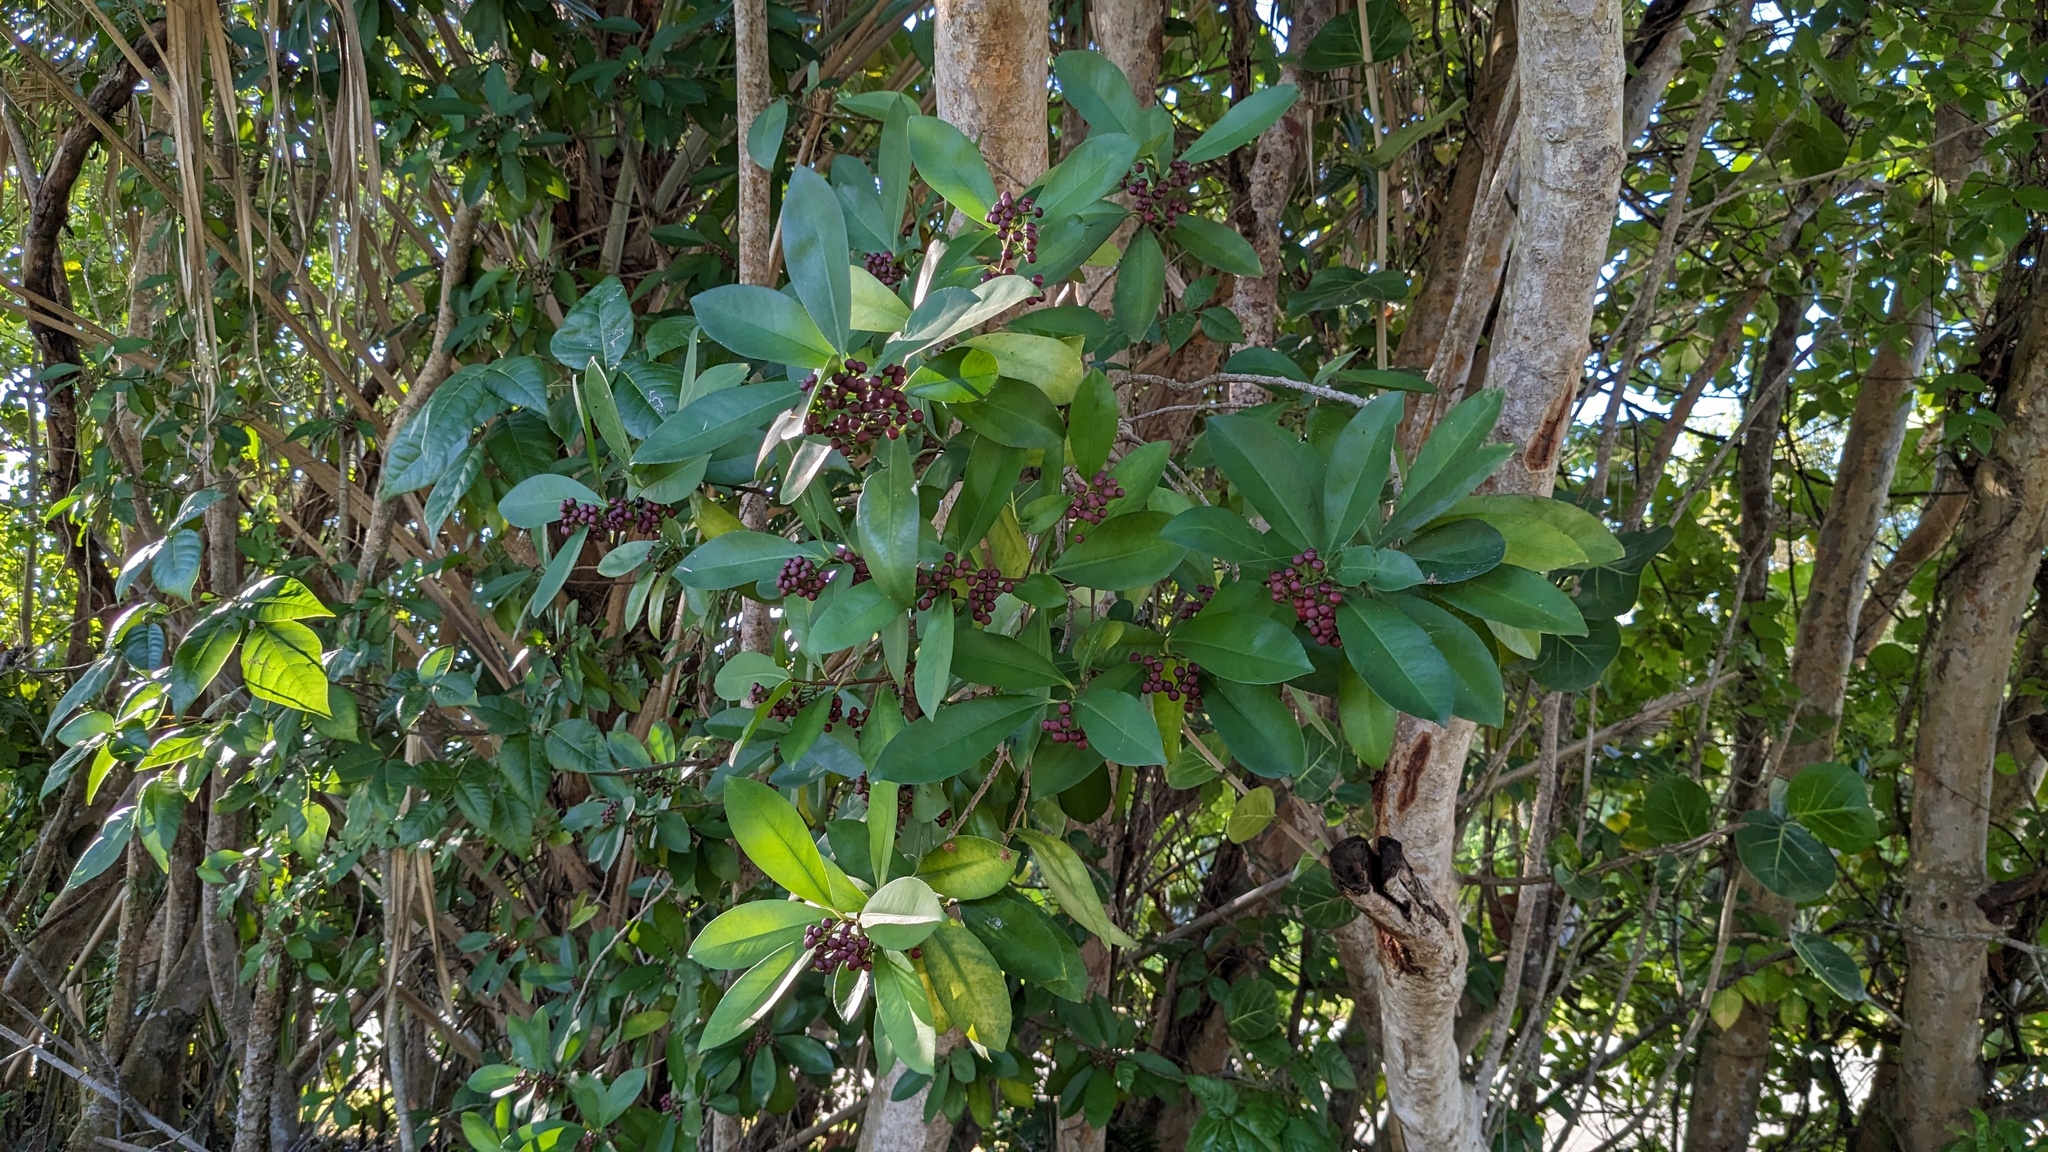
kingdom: Plantae
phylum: Tracheophyta
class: Magnoliopsida
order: Ericales
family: Primulaceae
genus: Ardisia
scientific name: Ardisia elliptica
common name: Shoebutton
